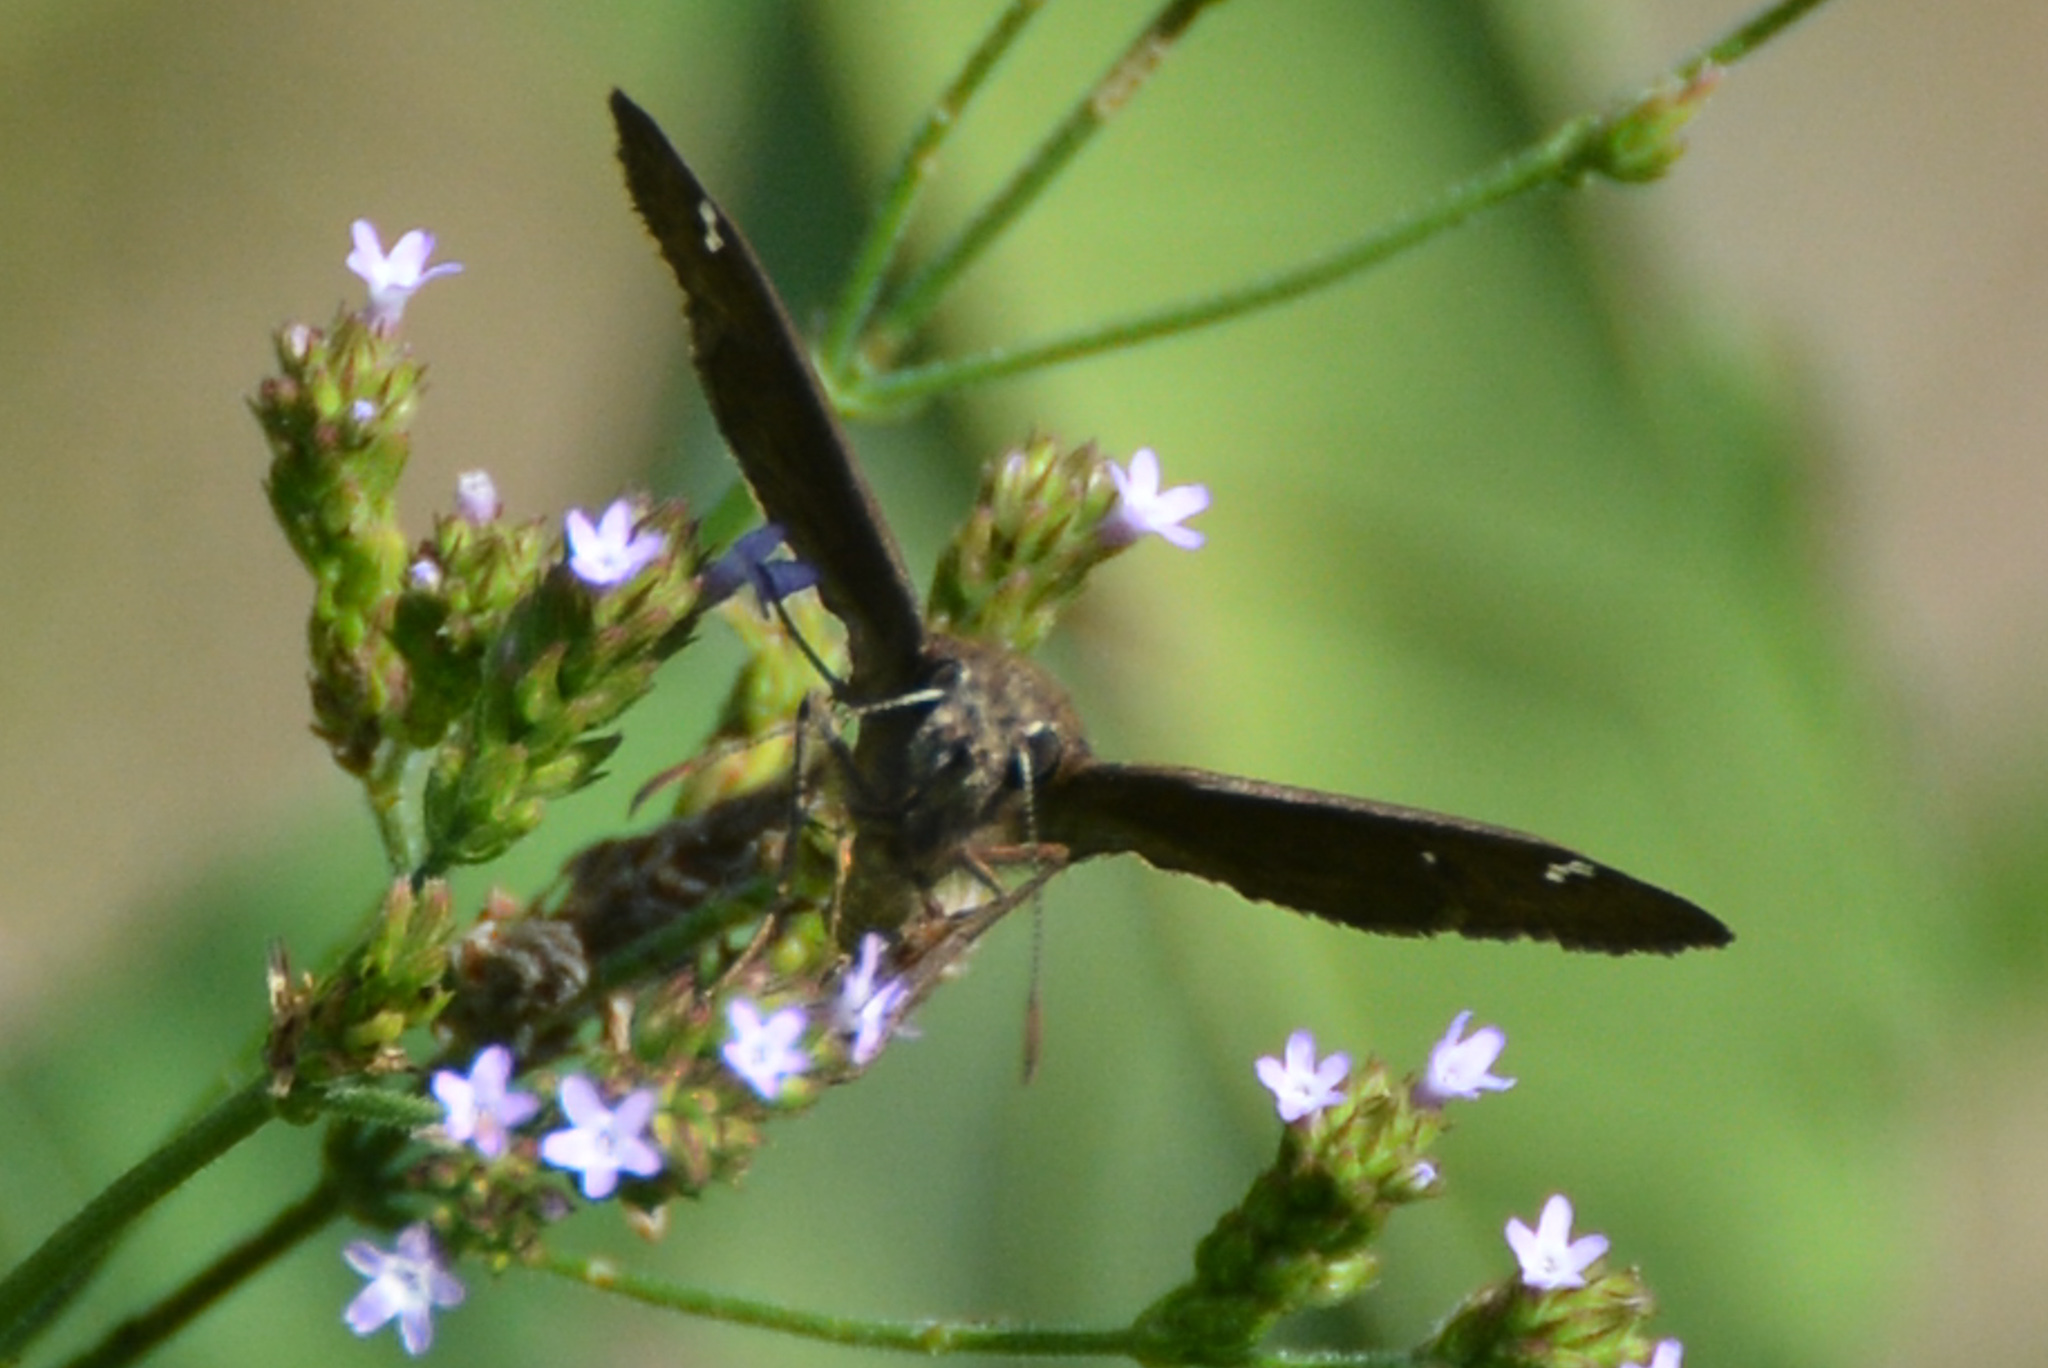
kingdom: Animalia
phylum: Arthropoda
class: Insecta
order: Lepidoptera
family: Hesperiidae
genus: Erynnis
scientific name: Erynnis horatius
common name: Horace's duskywing
